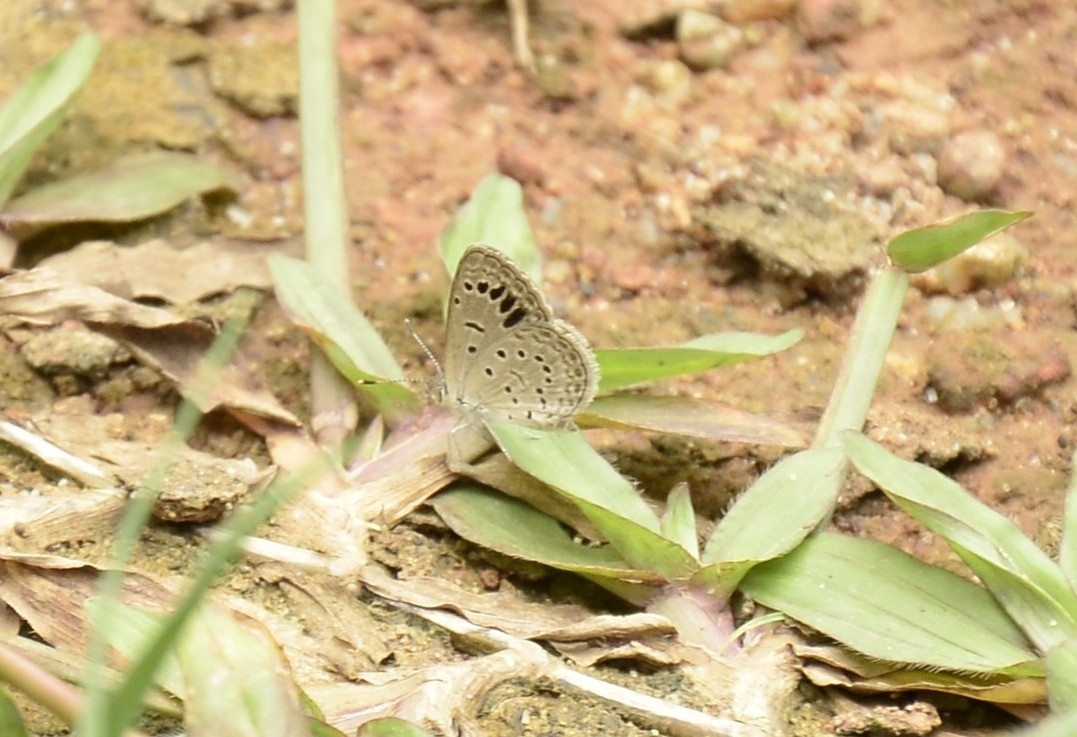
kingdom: Animalia
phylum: Arthropoda
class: Insecta
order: Lepidoptera
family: Lycaenidae
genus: Zizeeria
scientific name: Zizeeria karsandra
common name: Dark grass blue
